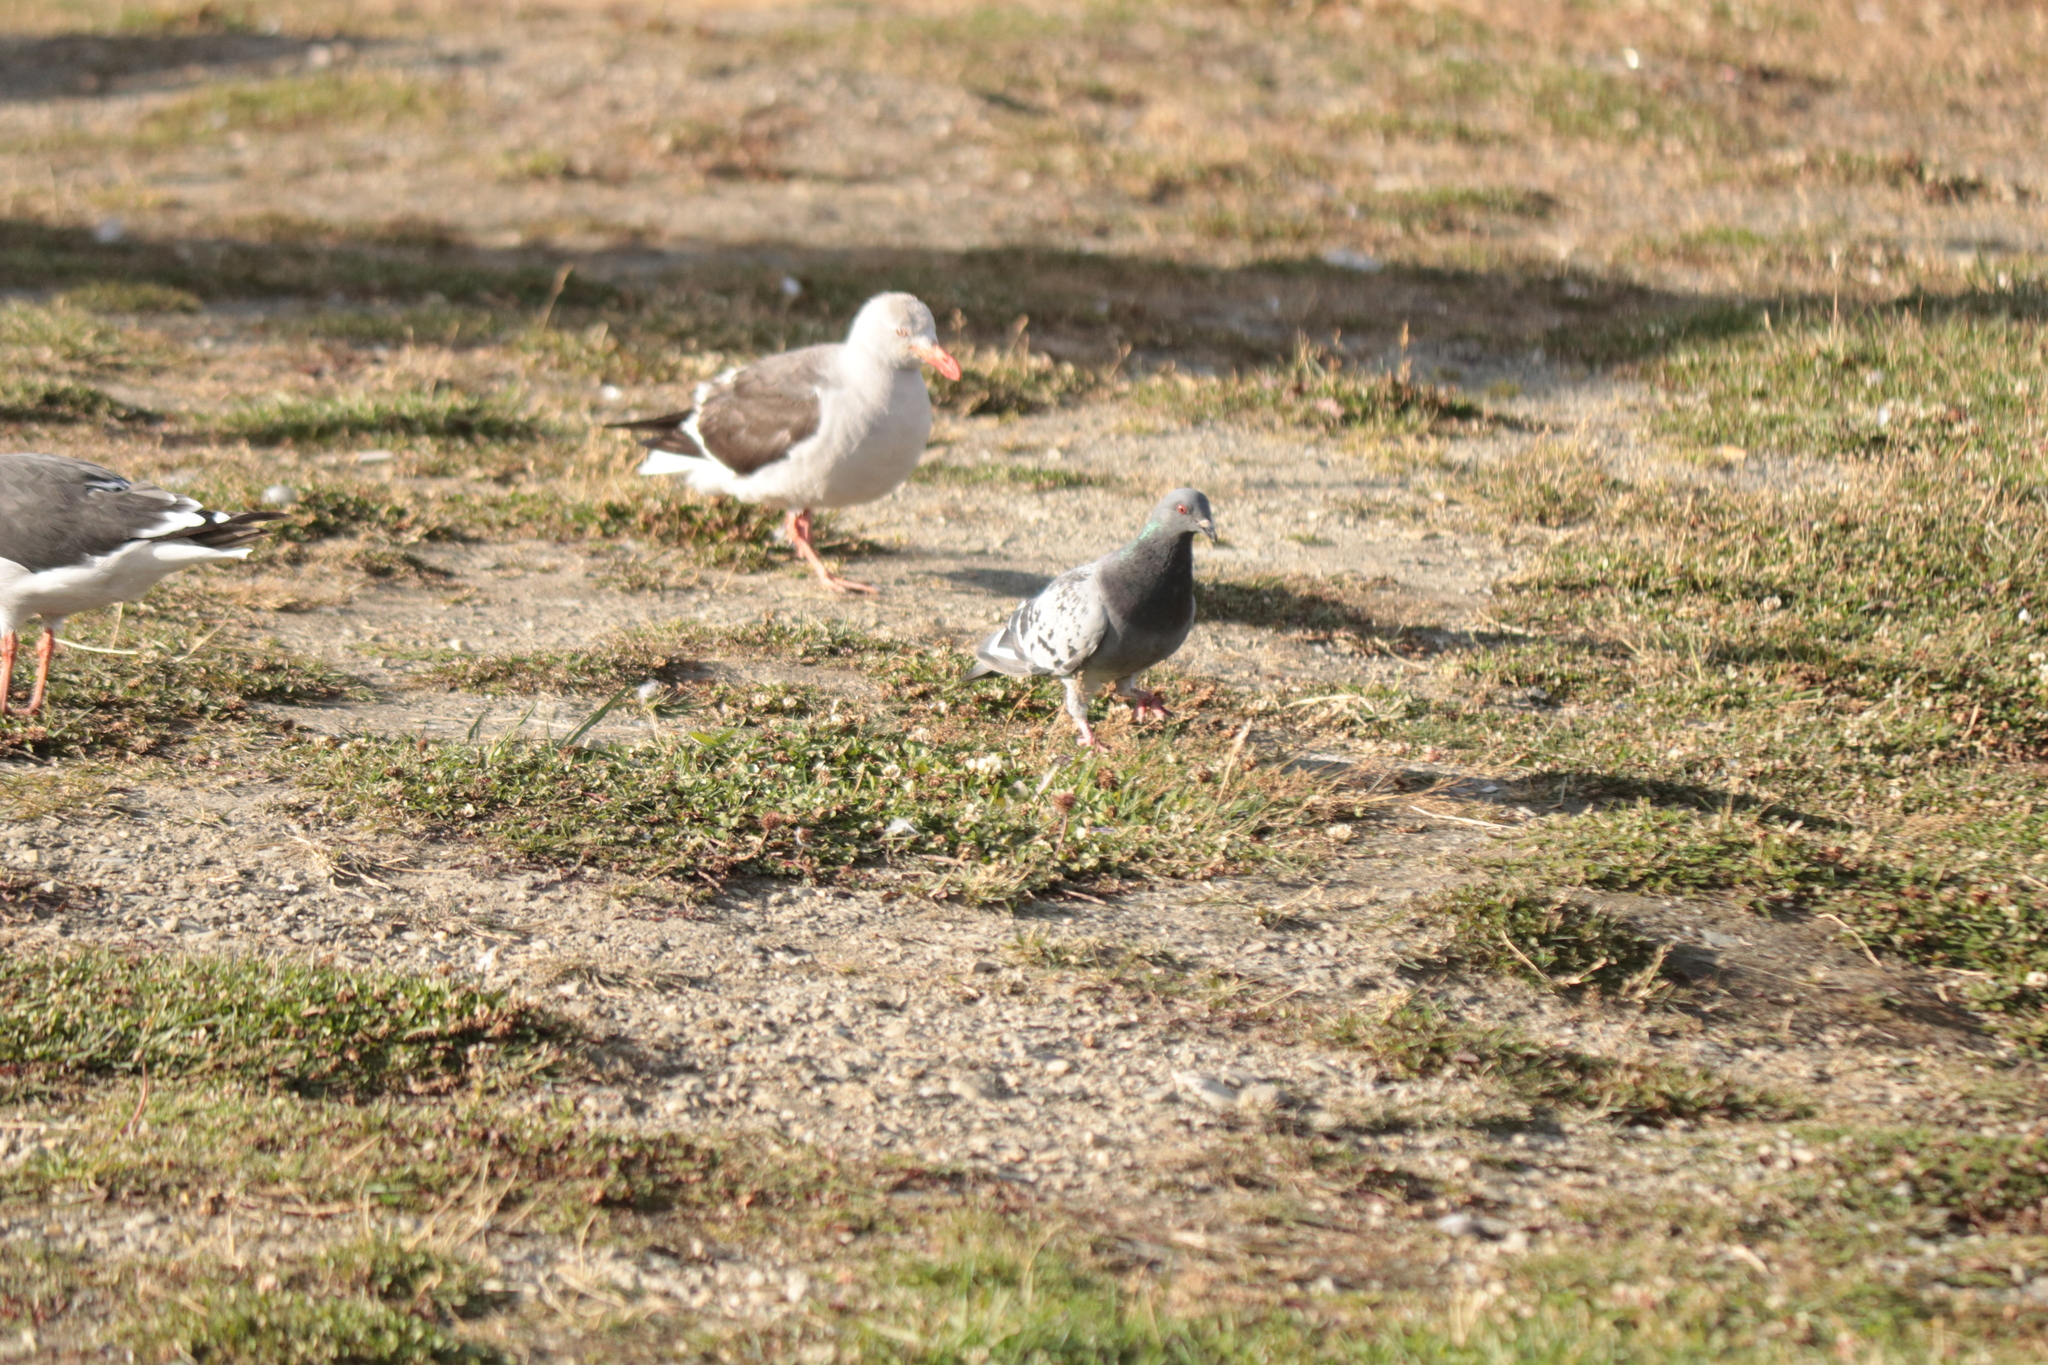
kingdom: Animalia
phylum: Chordata
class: Aves
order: Columbiformes
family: Columbidae
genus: Columba
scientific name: Columba livia
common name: Rock pigeon
